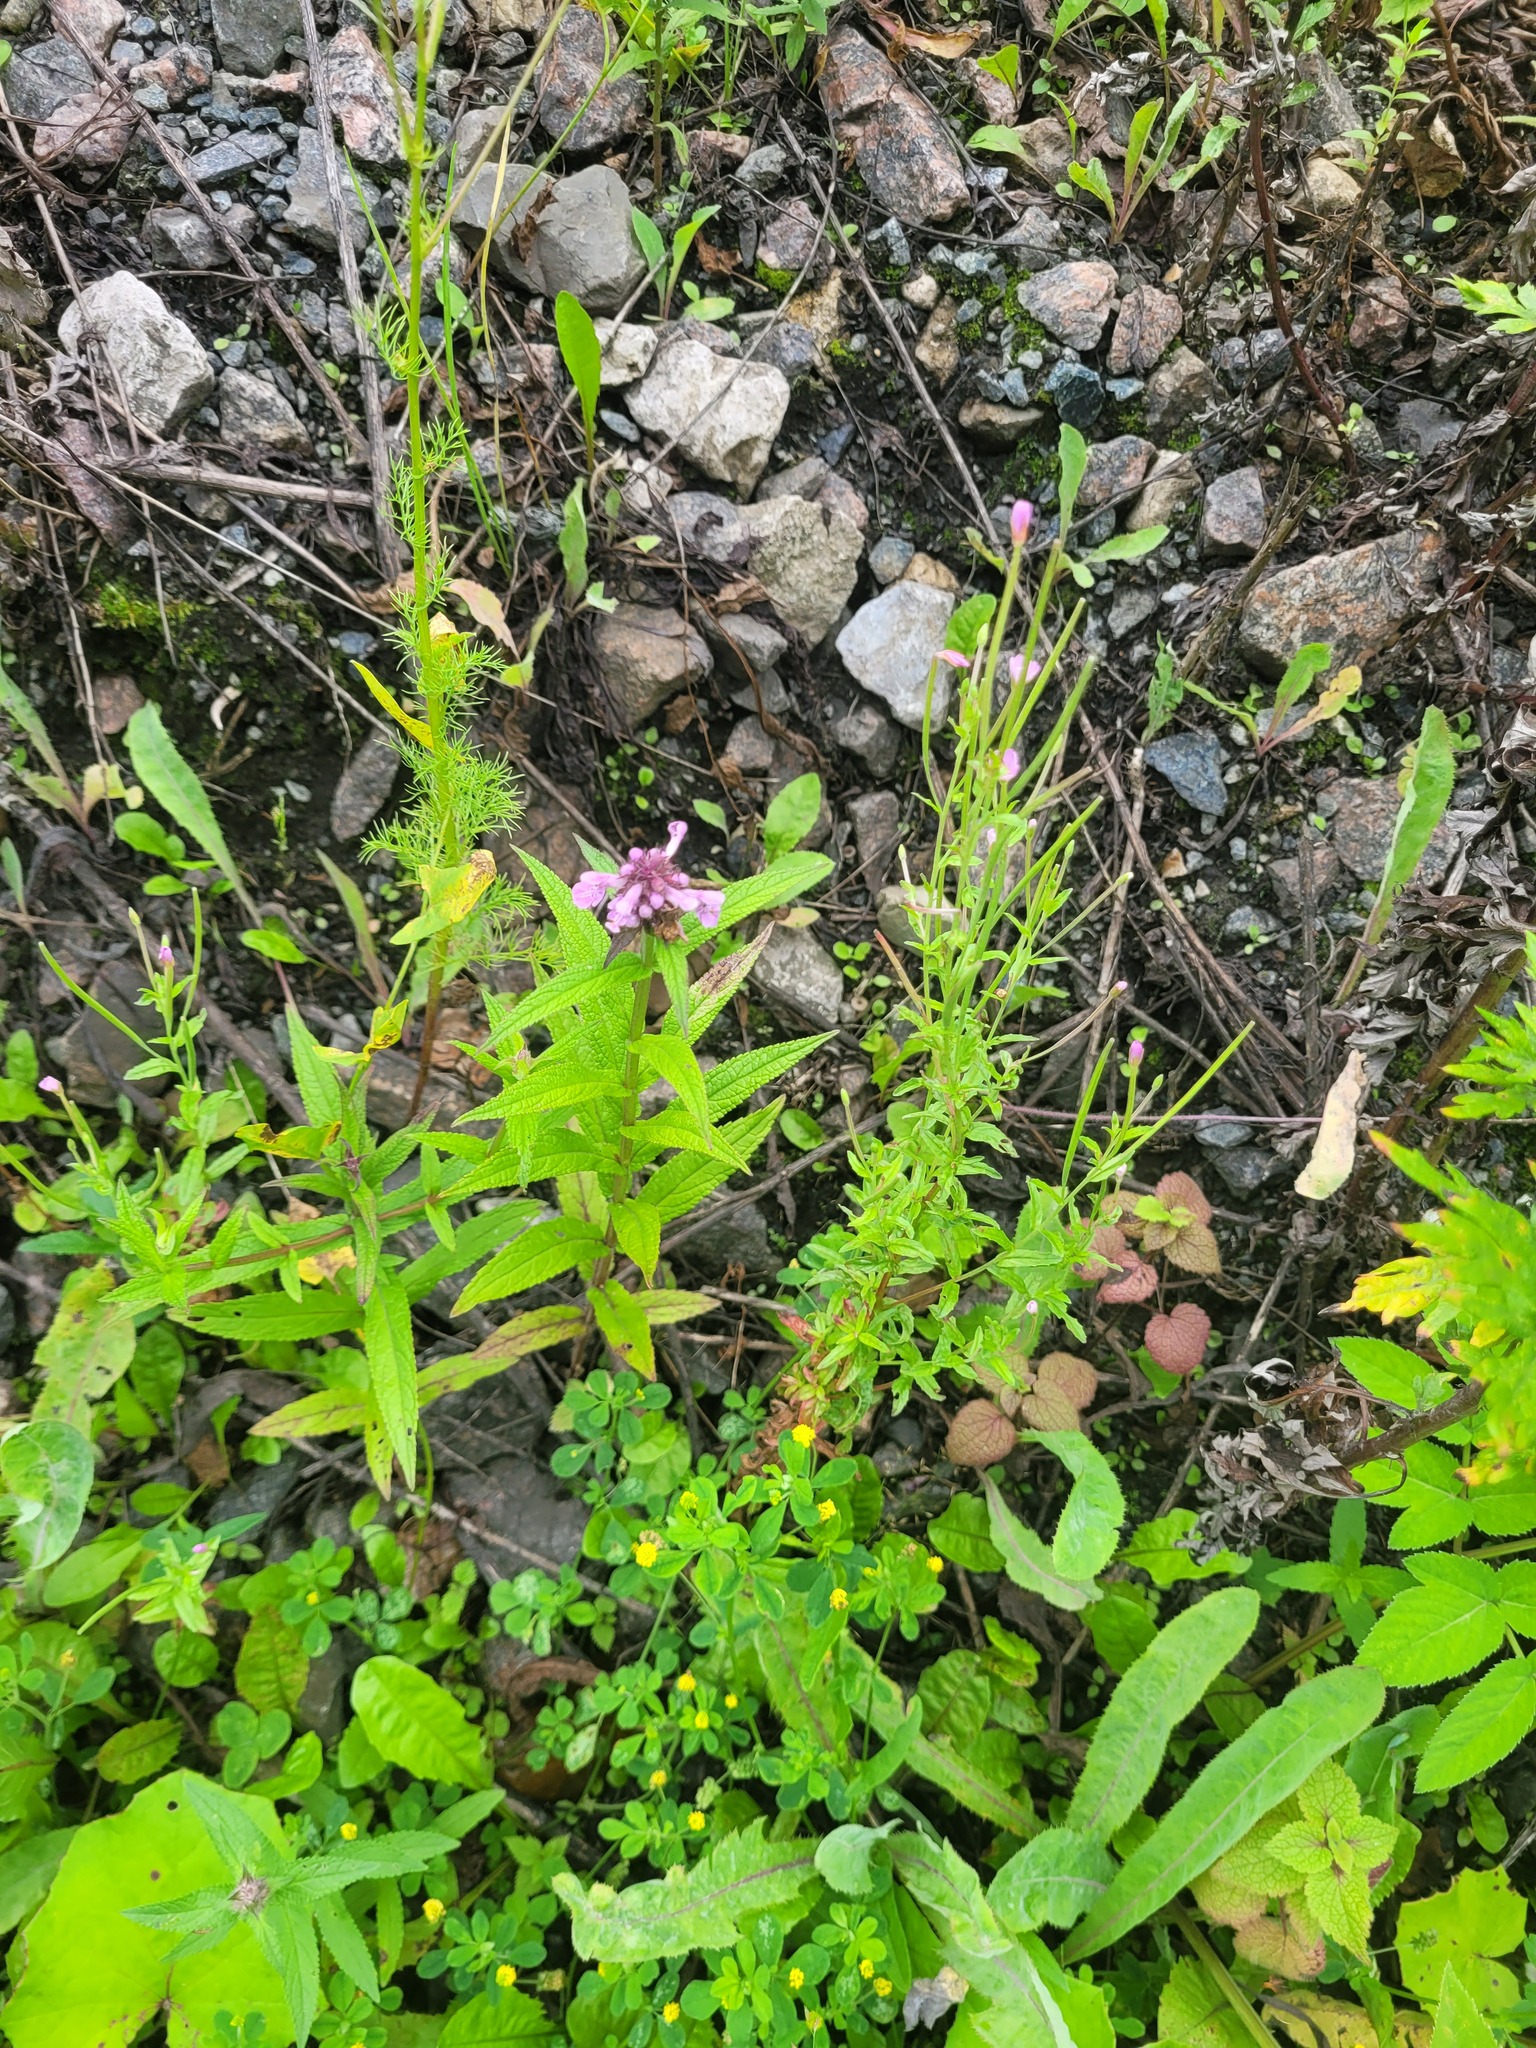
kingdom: Plantae
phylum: Tracheophyta
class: Magnoliopsida
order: Lamiales
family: Lamiaceae
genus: Stachys
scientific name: Stachys palustris
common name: Marsh woundwort
